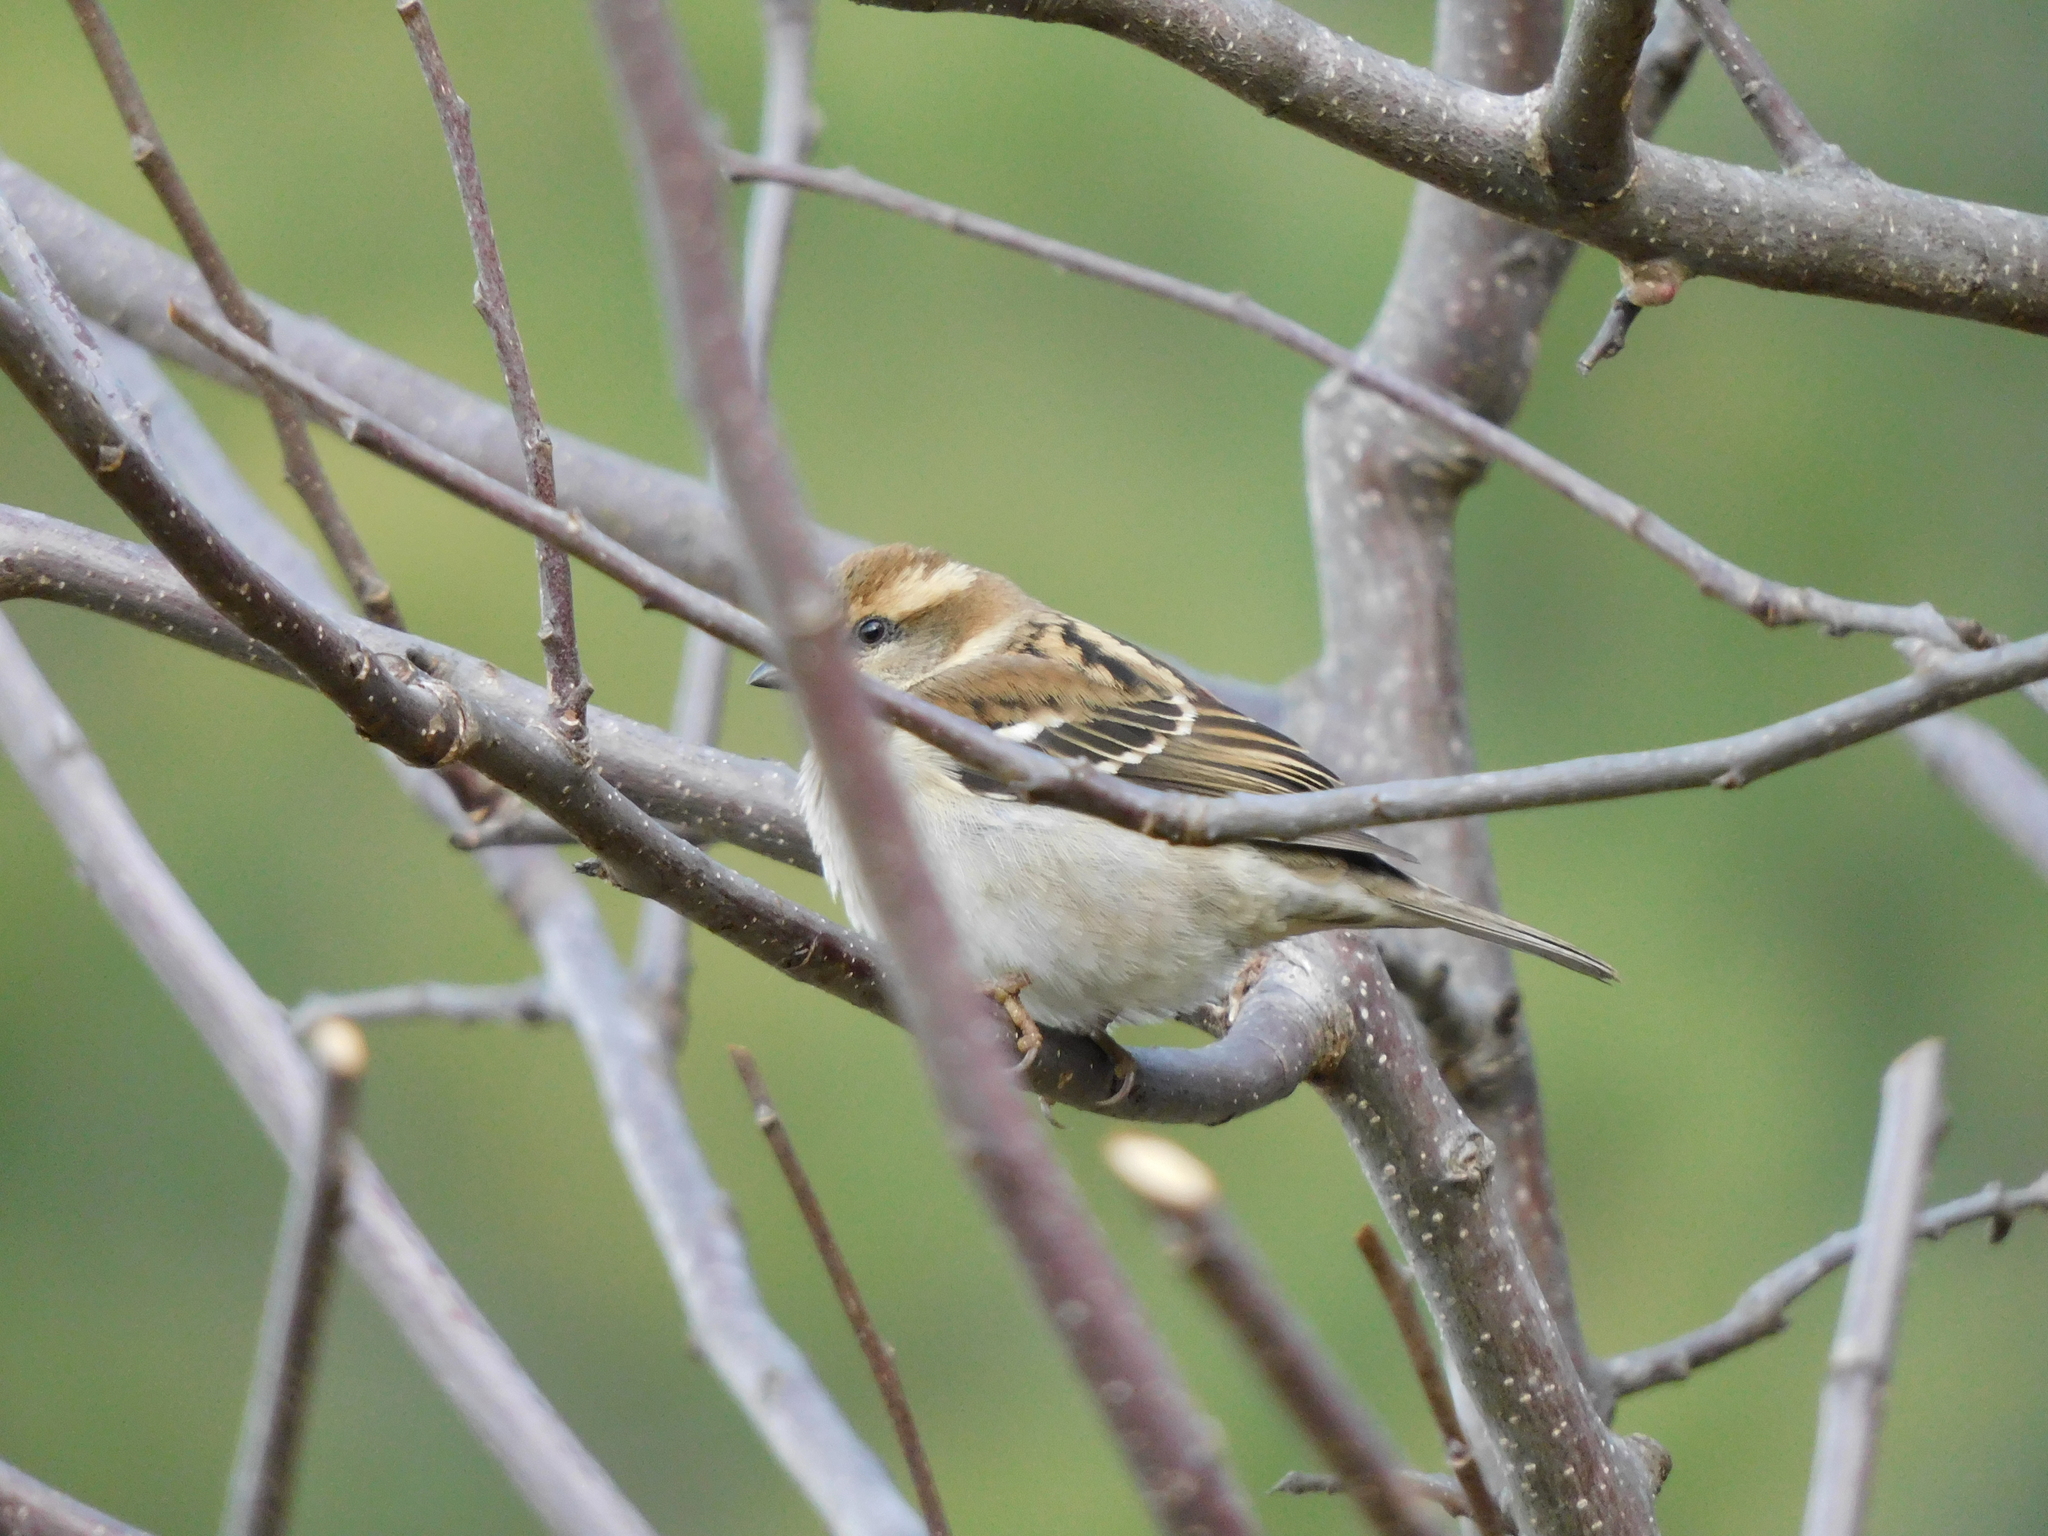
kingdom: Animalia
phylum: Chordata
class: Aves
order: Passeriformes
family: Passeridae
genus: Passer
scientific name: Passer cinnamomeus
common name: Russet sparrow
